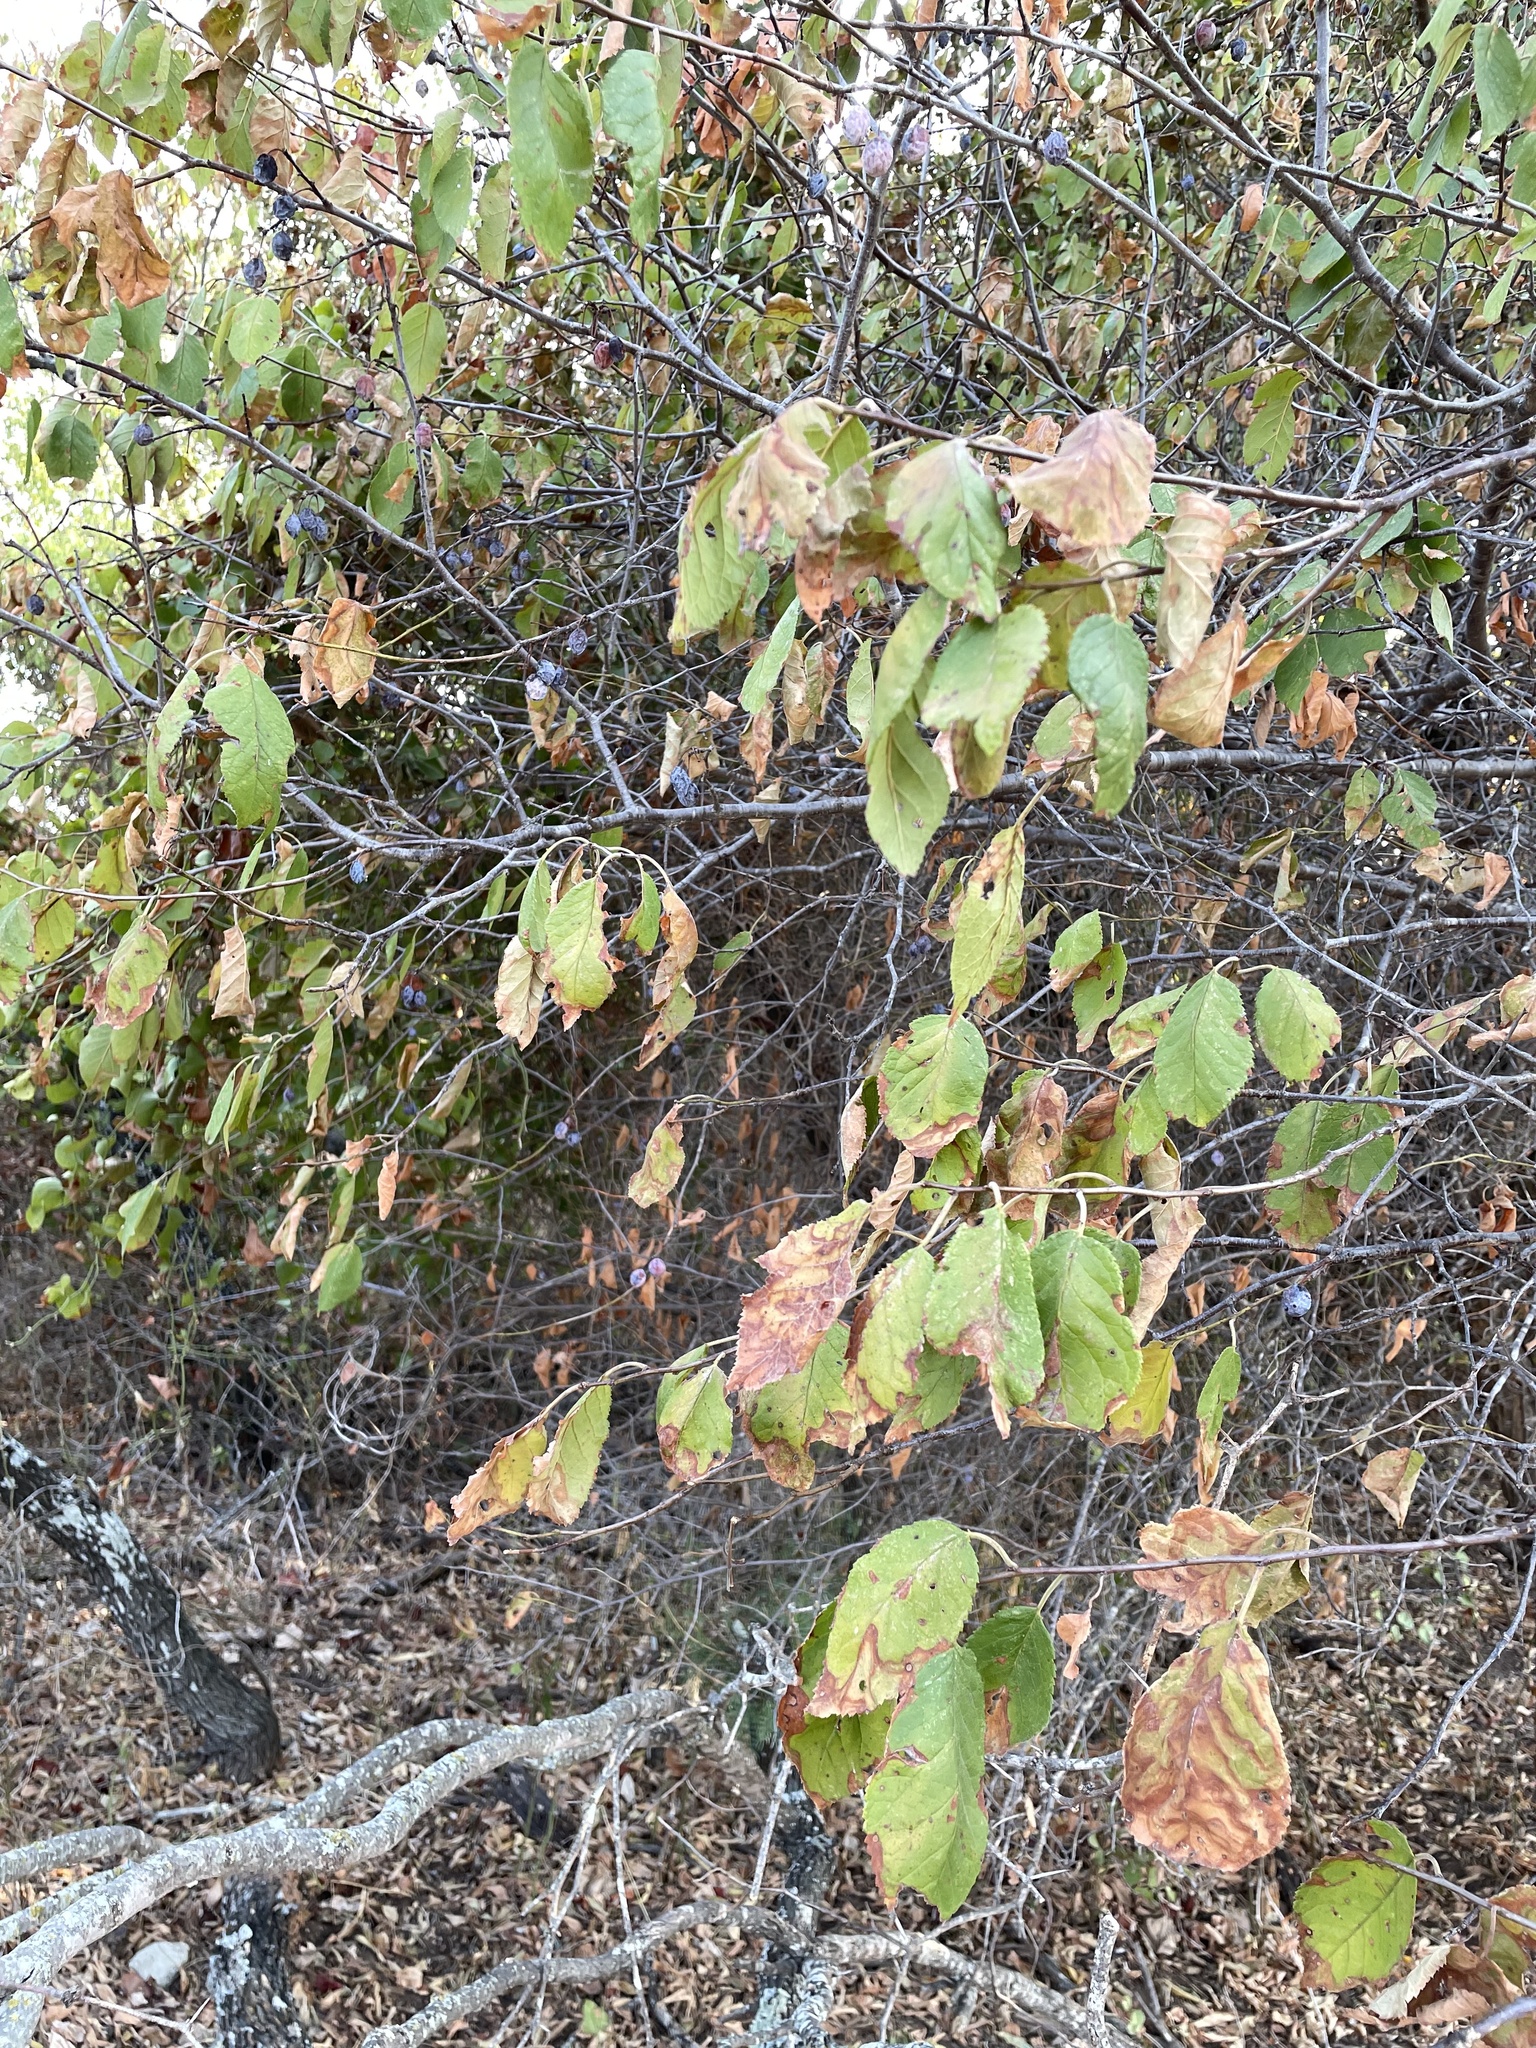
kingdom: Plantae
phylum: Tracheophyta
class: Magnoliopsida
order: Rosales
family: Rosaceae
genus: Prunus
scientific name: Prunus mexicana
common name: Mexican plum
